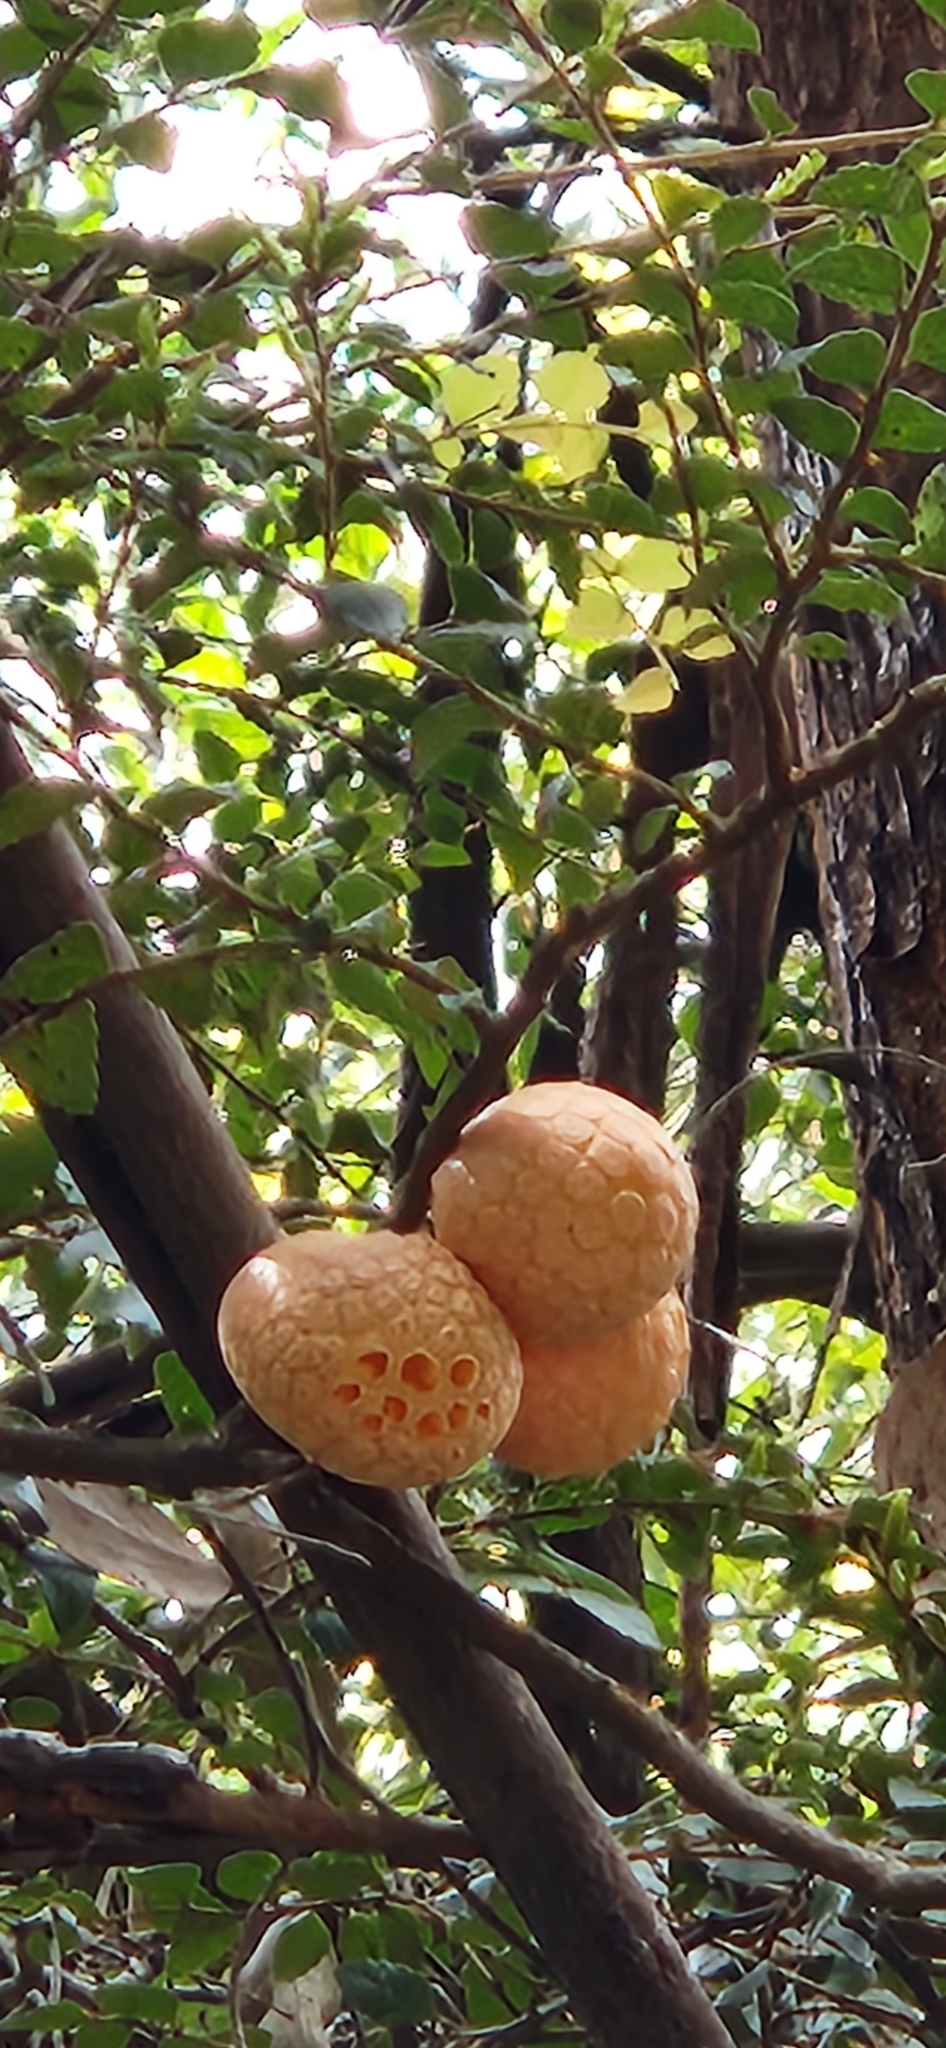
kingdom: Fungi
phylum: Ascomycota
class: Leotiomycetes
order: Cyttariales
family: Cyttariaceae
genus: Cyttaria
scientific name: Cyttaria gunnii
